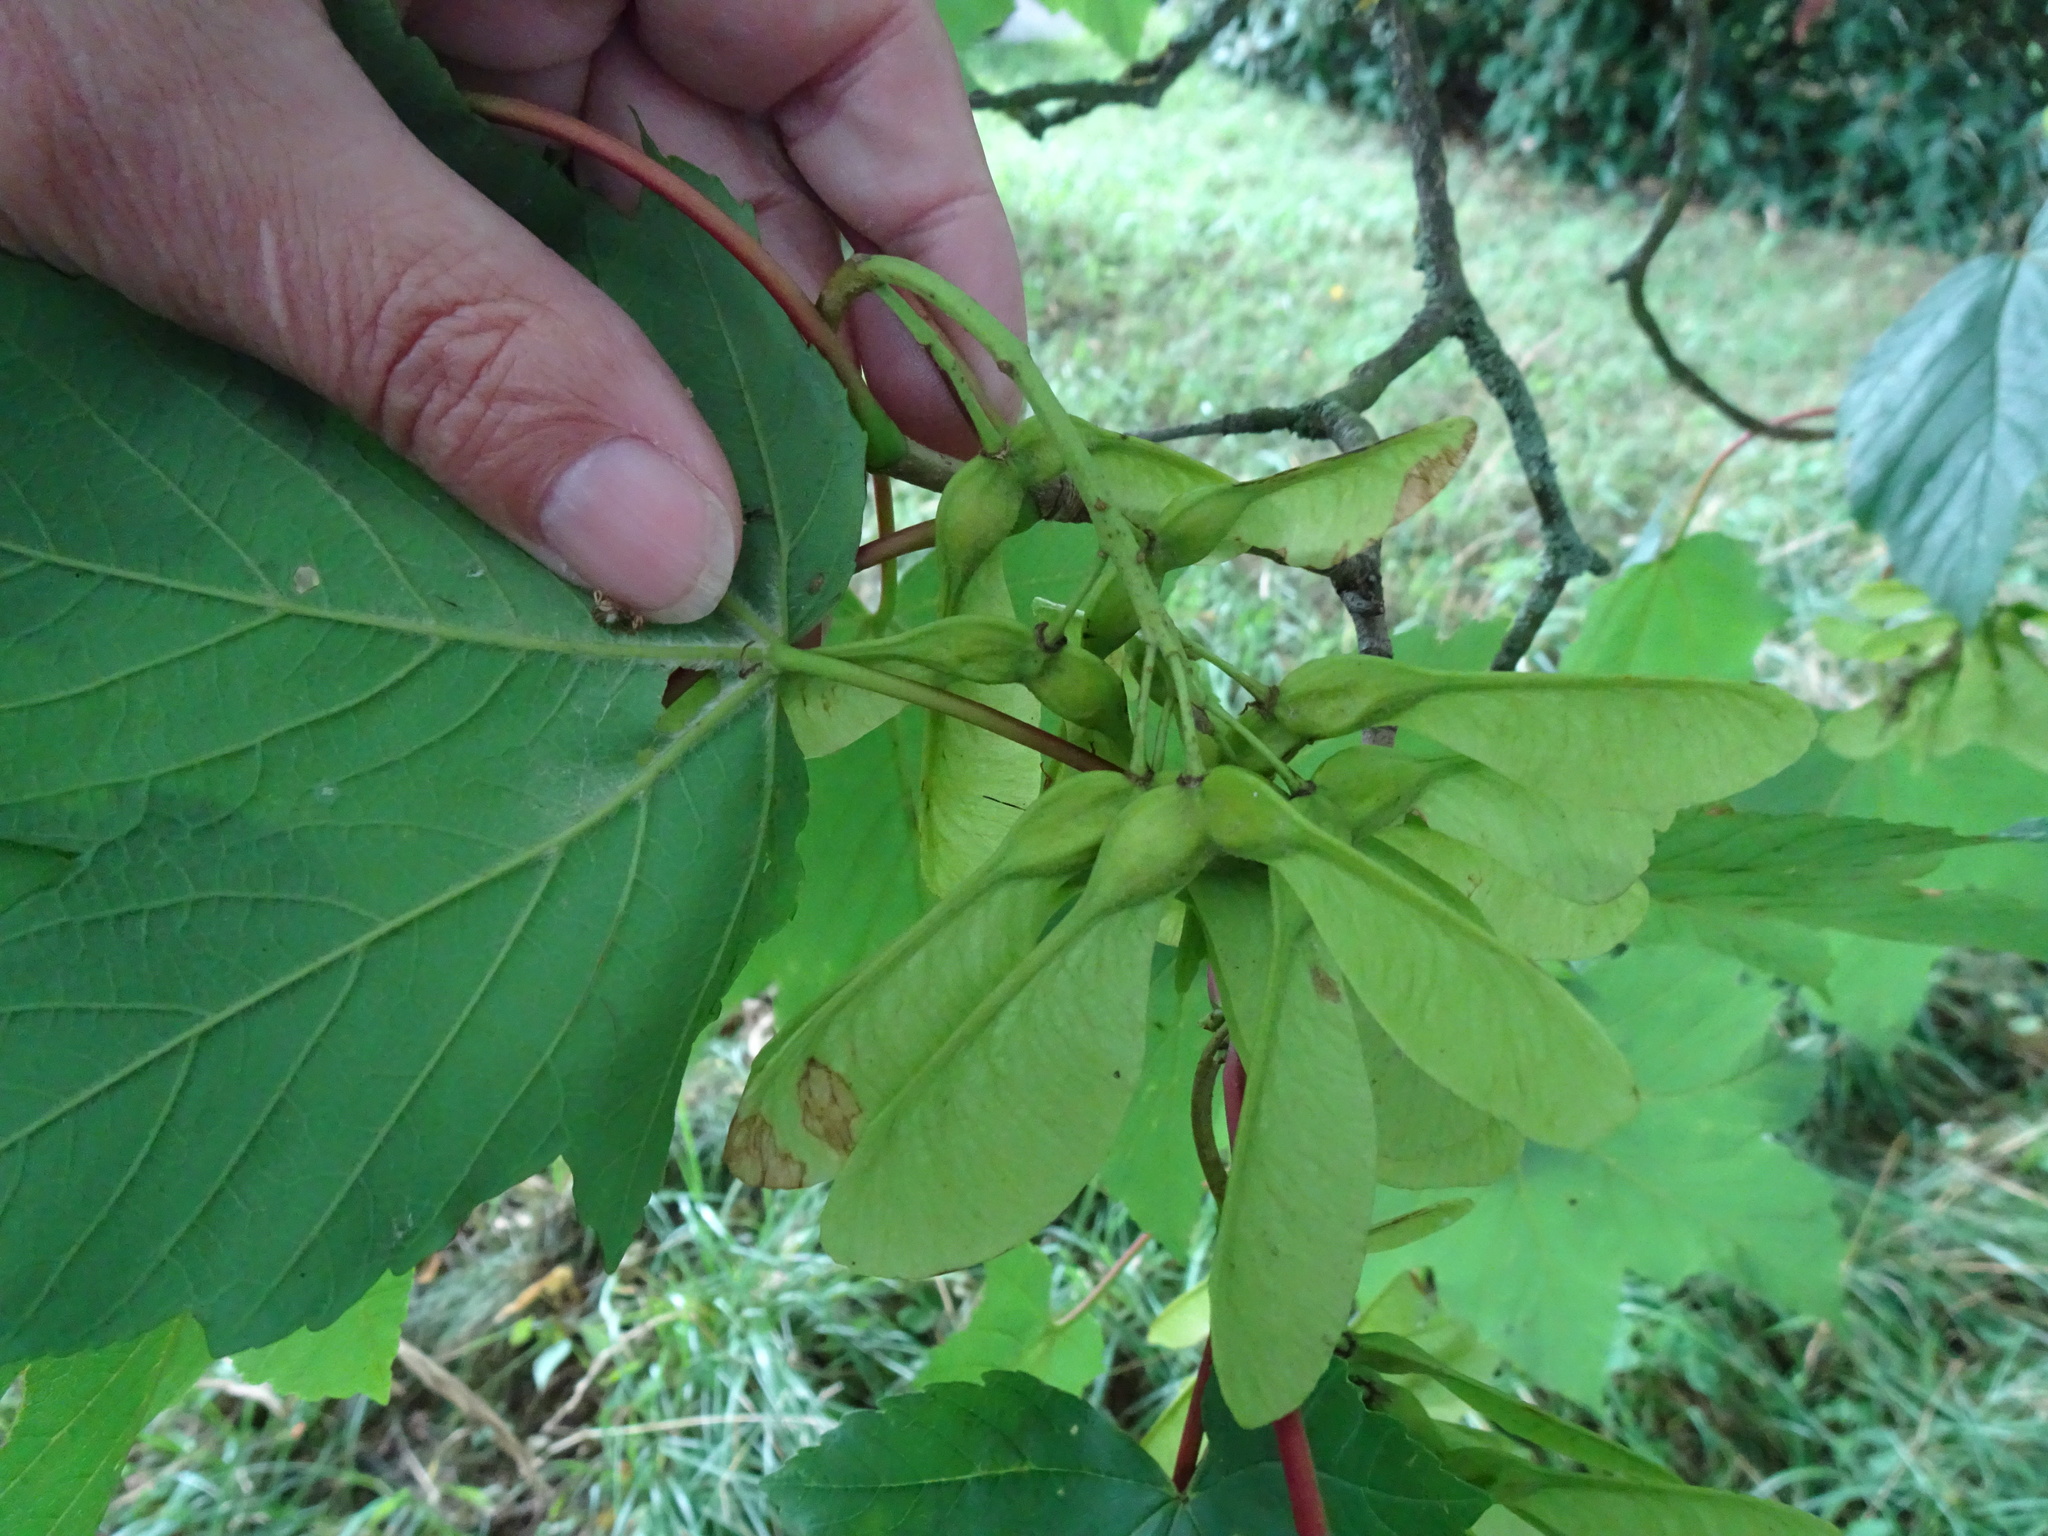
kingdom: Plantae
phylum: Tracheophyta
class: Magnoliopsida
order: Sapindales
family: Sapindaceae
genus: Acer
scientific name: Acer pseudoplatanus
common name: Sycamore
